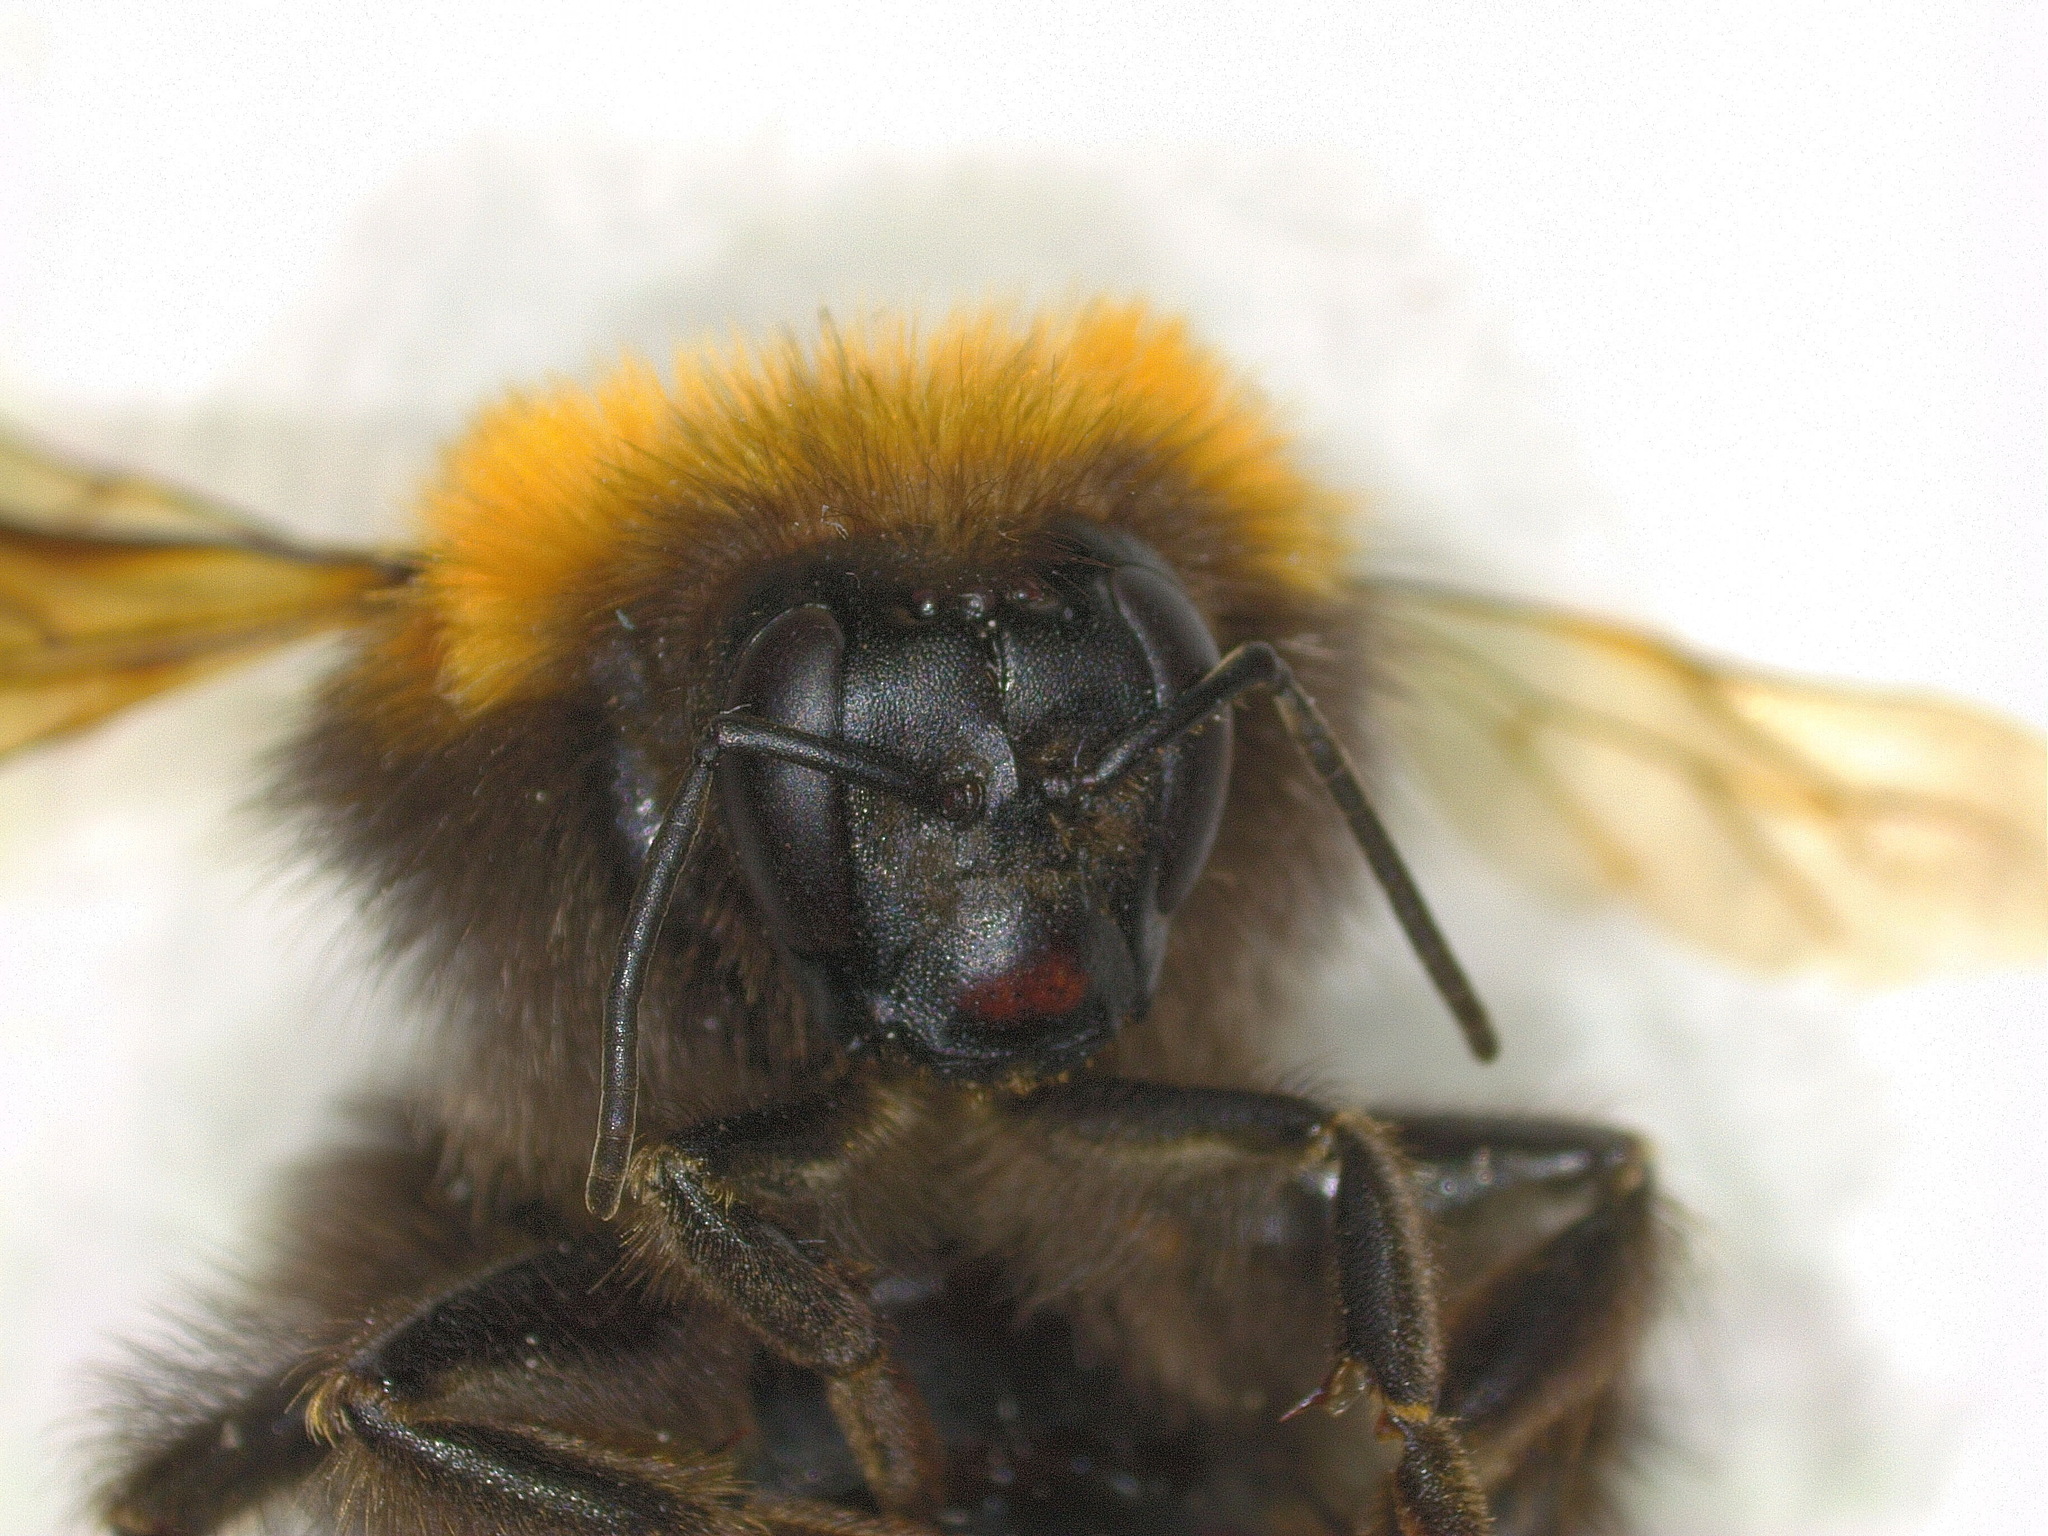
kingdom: Animalia
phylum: Arthropoda
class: Insecta
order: Hymenoptera
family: Apidae
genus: Bombus
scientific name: Bombus hypnorum
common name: New garden bumblebee
